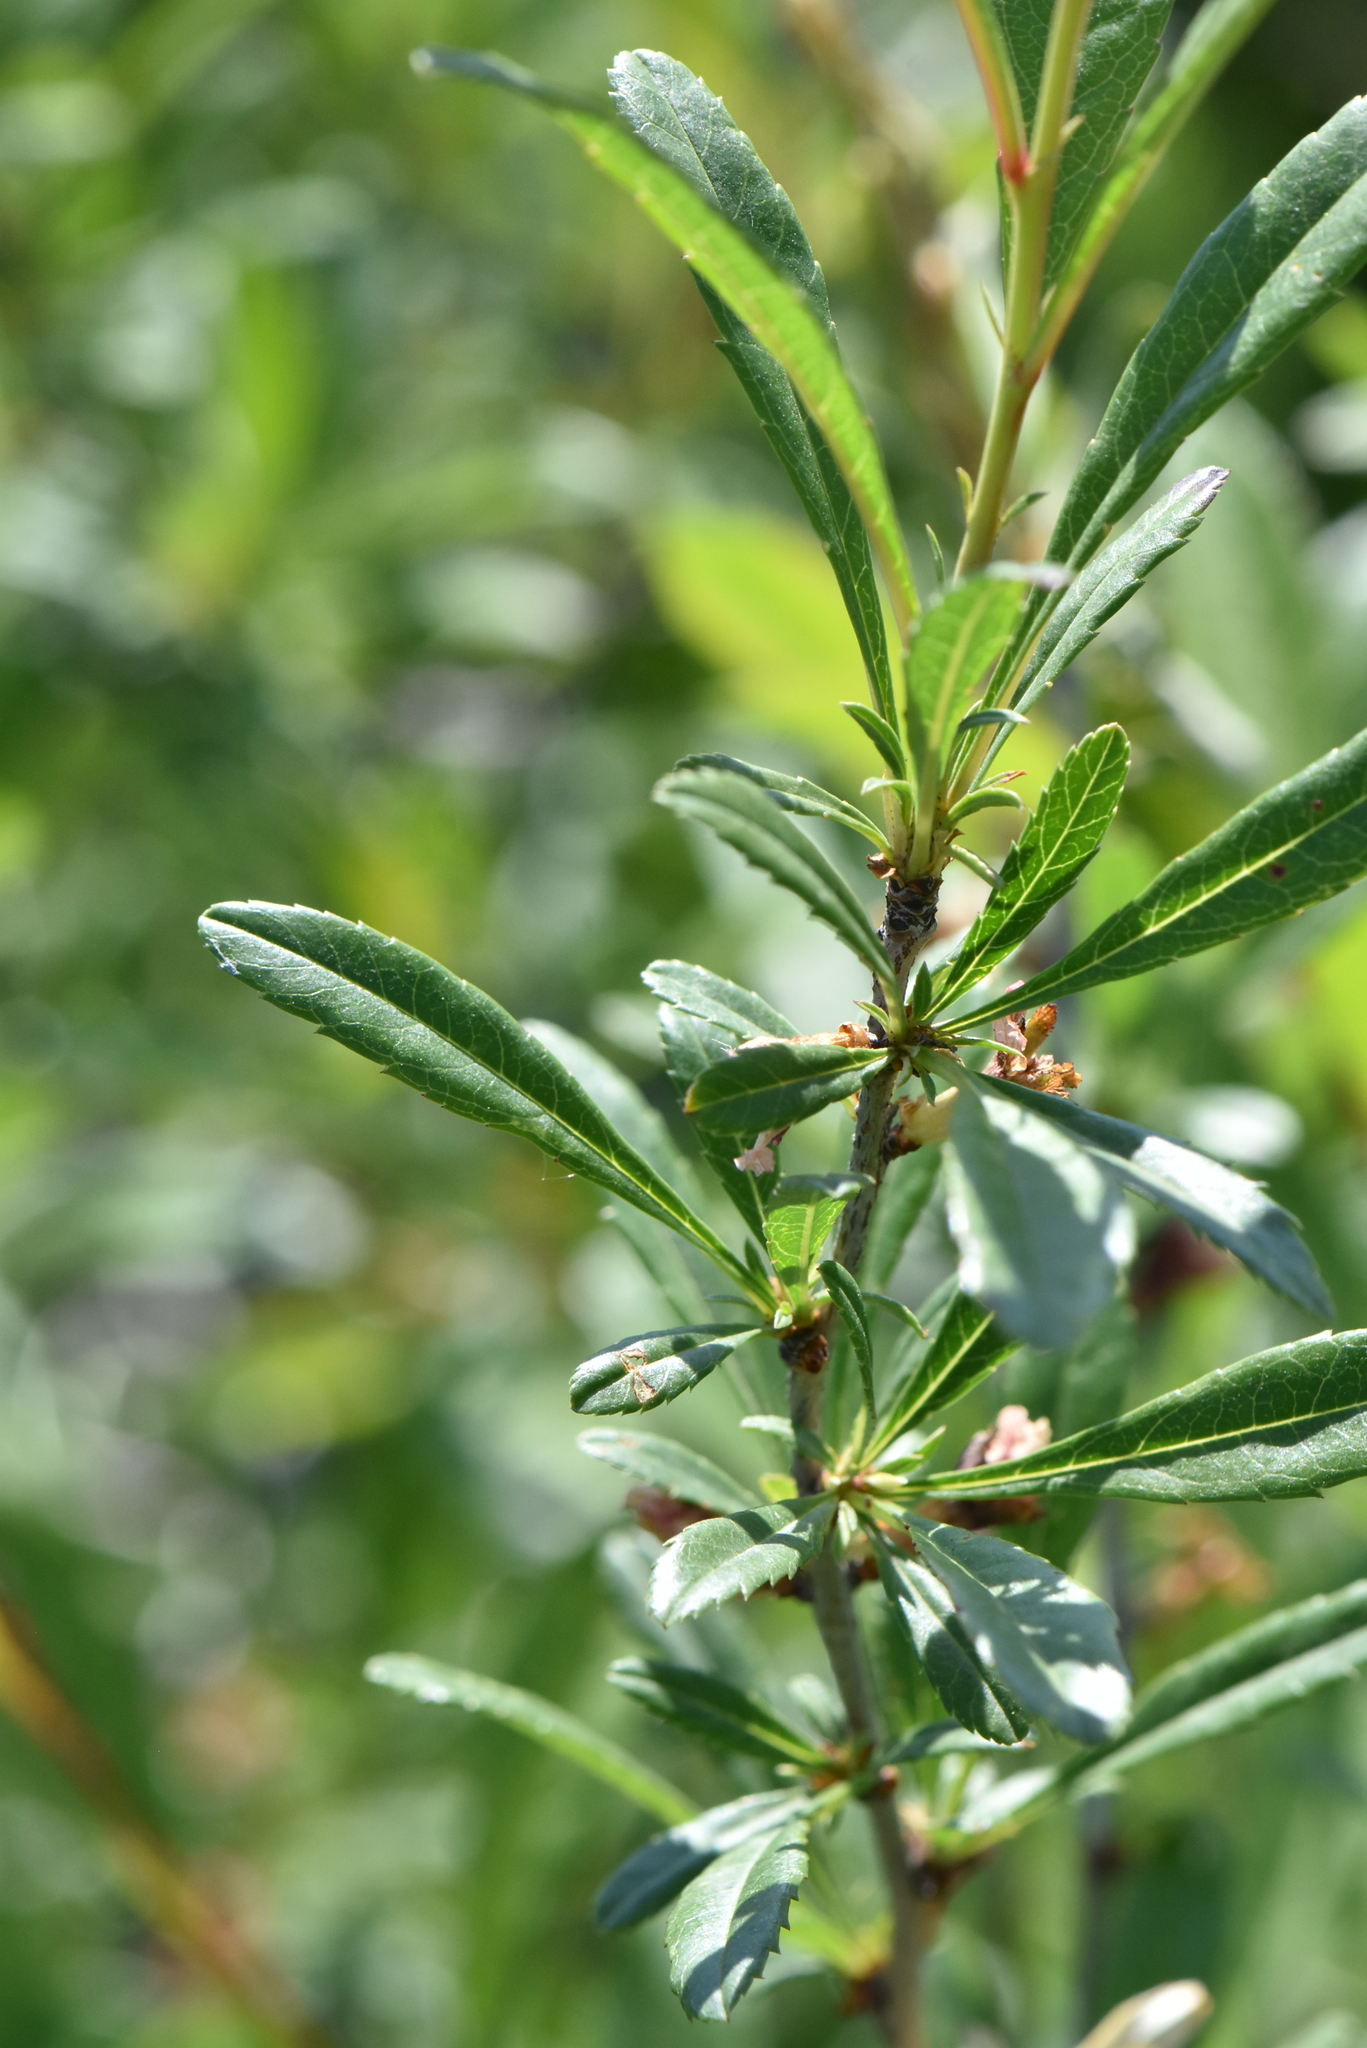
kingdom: Plantae
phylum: Tracheophyta
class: Magnoliopsida
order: Rosales
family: Rosaceae
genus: Prunus
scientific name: Prunus tenella
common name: Dwarf russian almond
